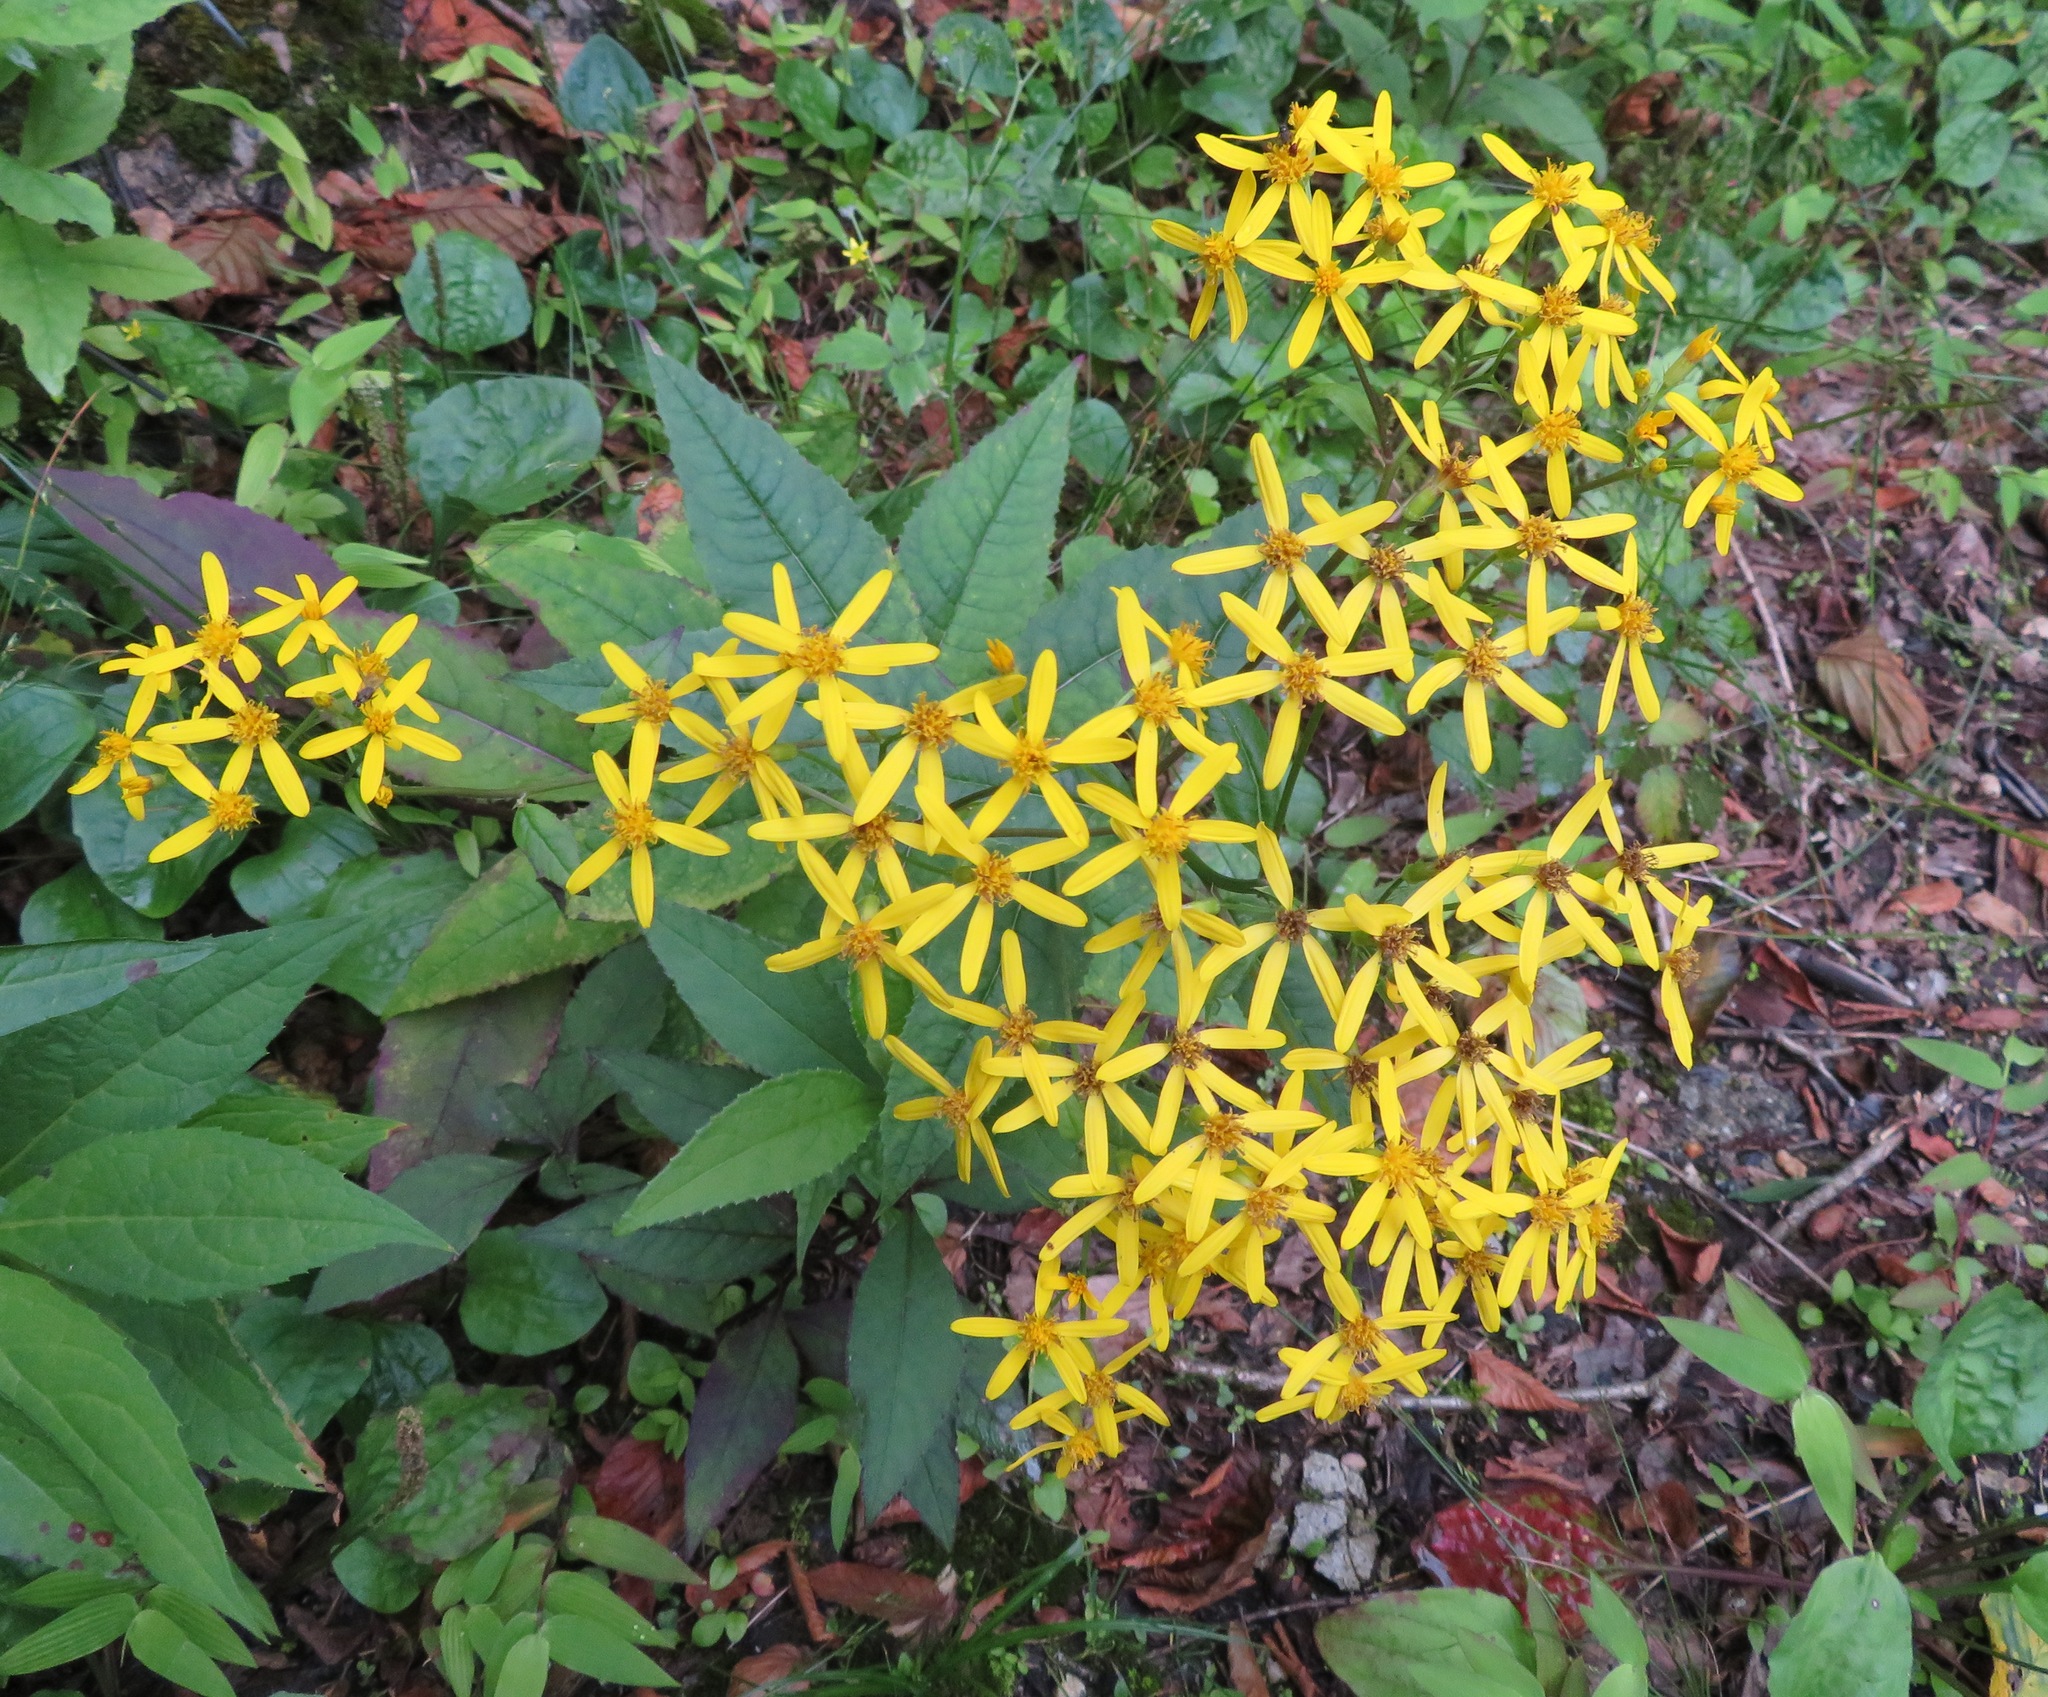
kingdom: Plantae
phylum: Tracheophyta
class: Magnoliopsida
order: Asterales
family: Asteraceae
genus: Senecio
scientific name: Senecio nemorensis
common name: Alpine ragwort
